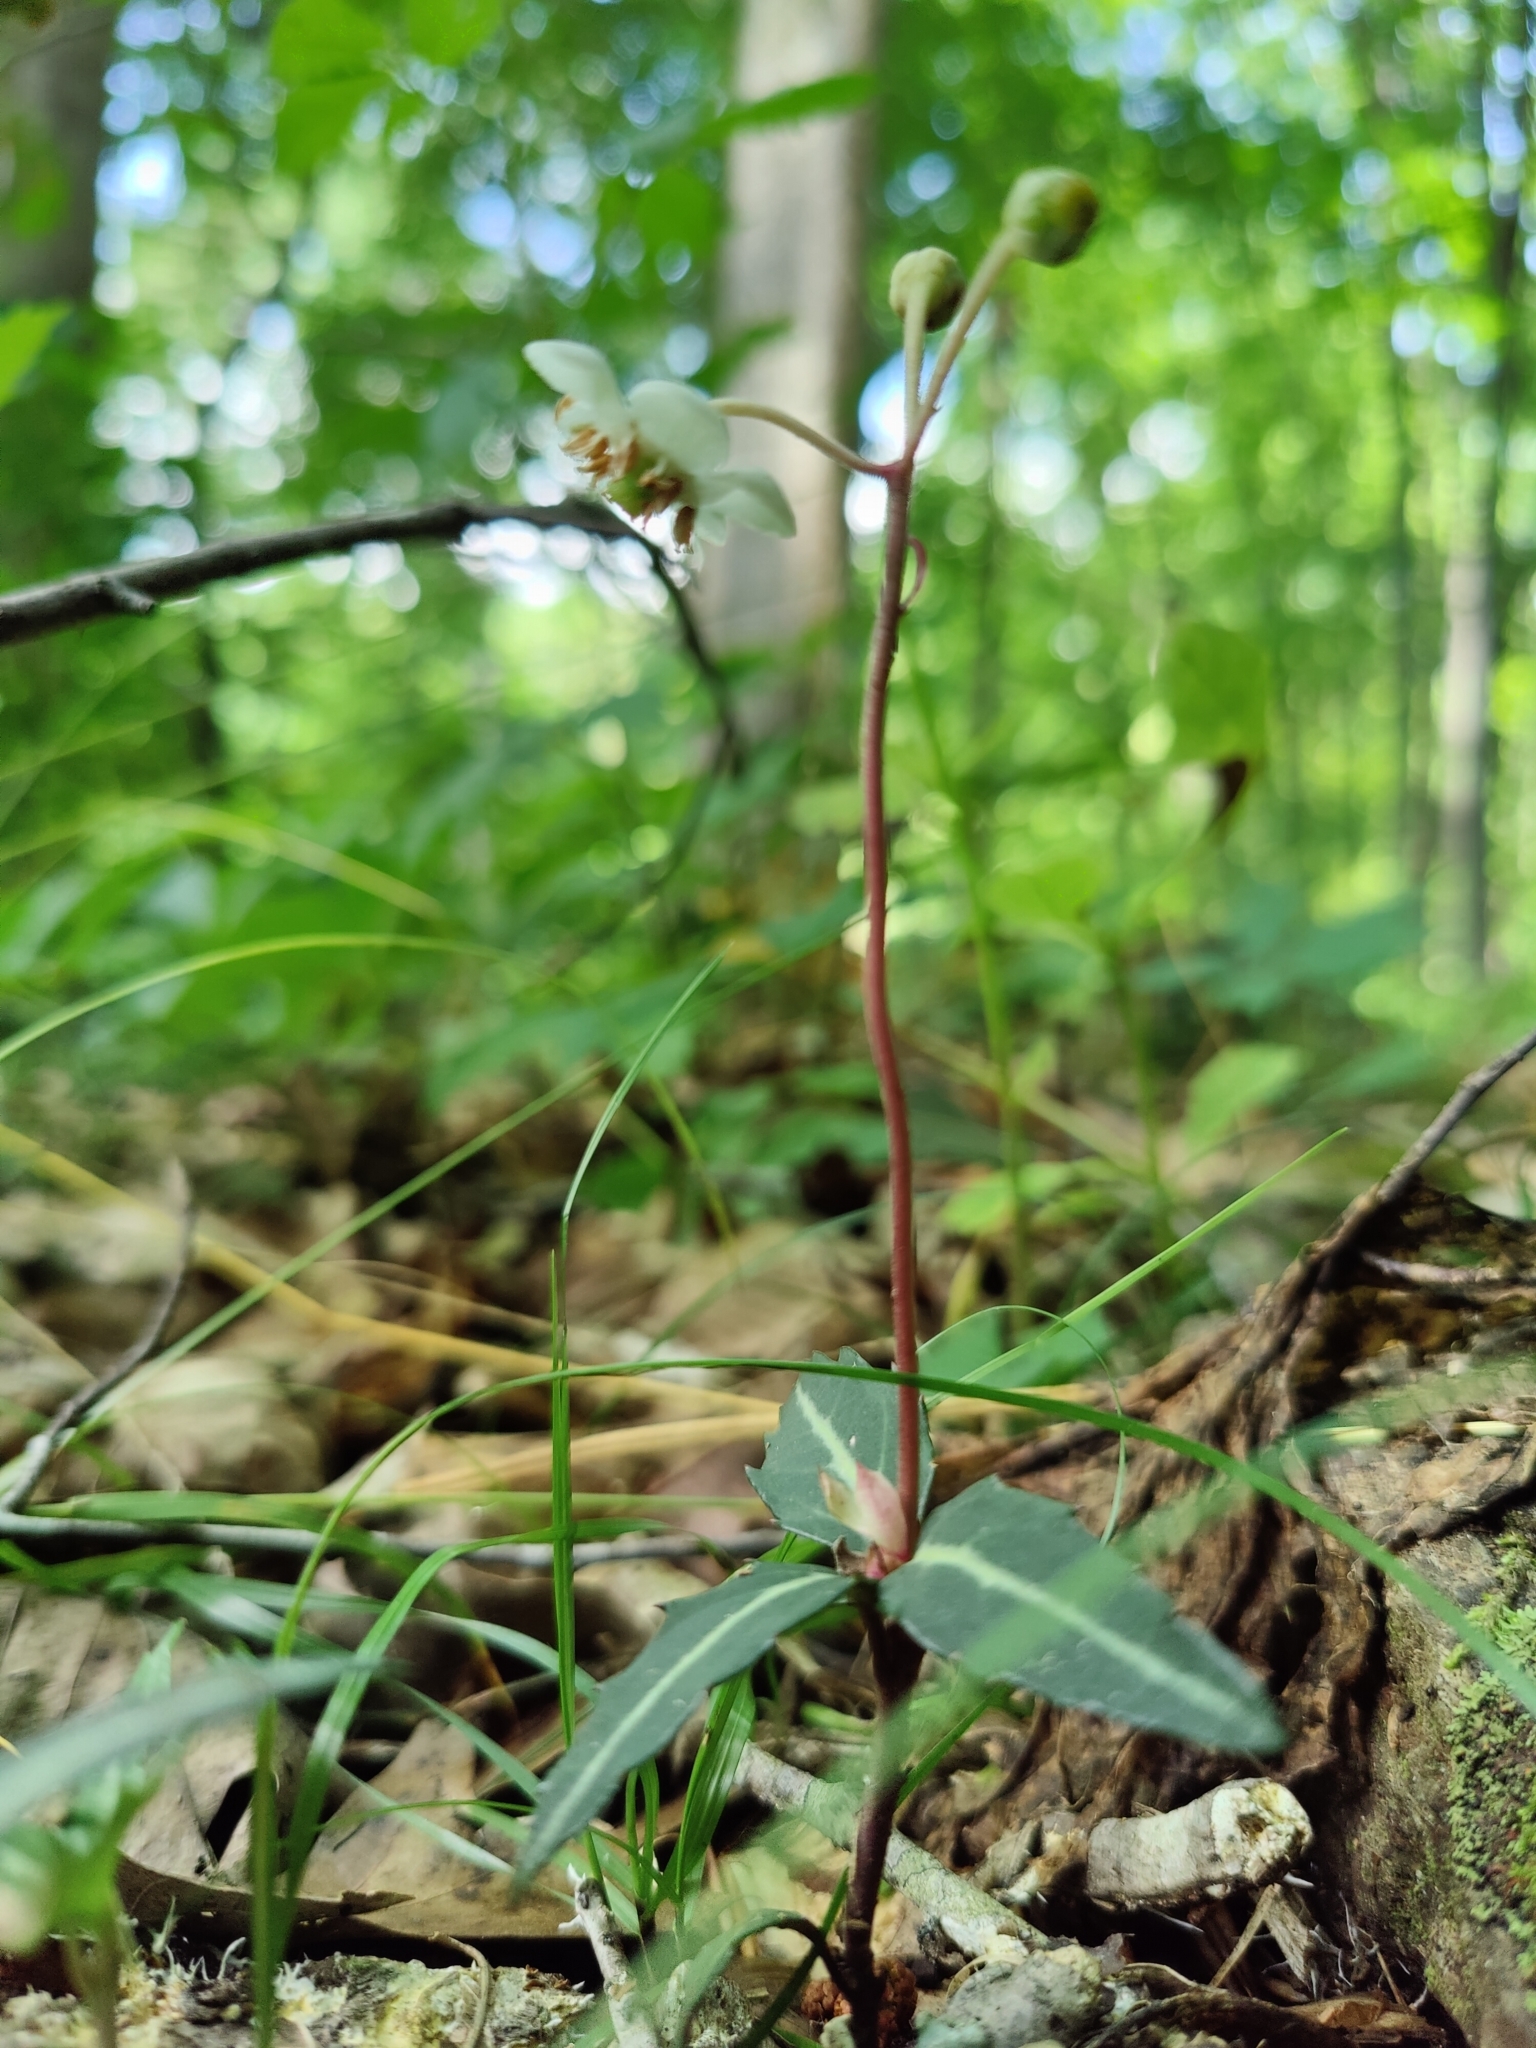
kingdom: Plantae
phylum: Tracheophyta
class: Magnoliopsida
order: Ericales
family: Ericaceae
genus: Chimaphila
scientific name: Chimaphila maculata
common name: Spotted pipsissewa
